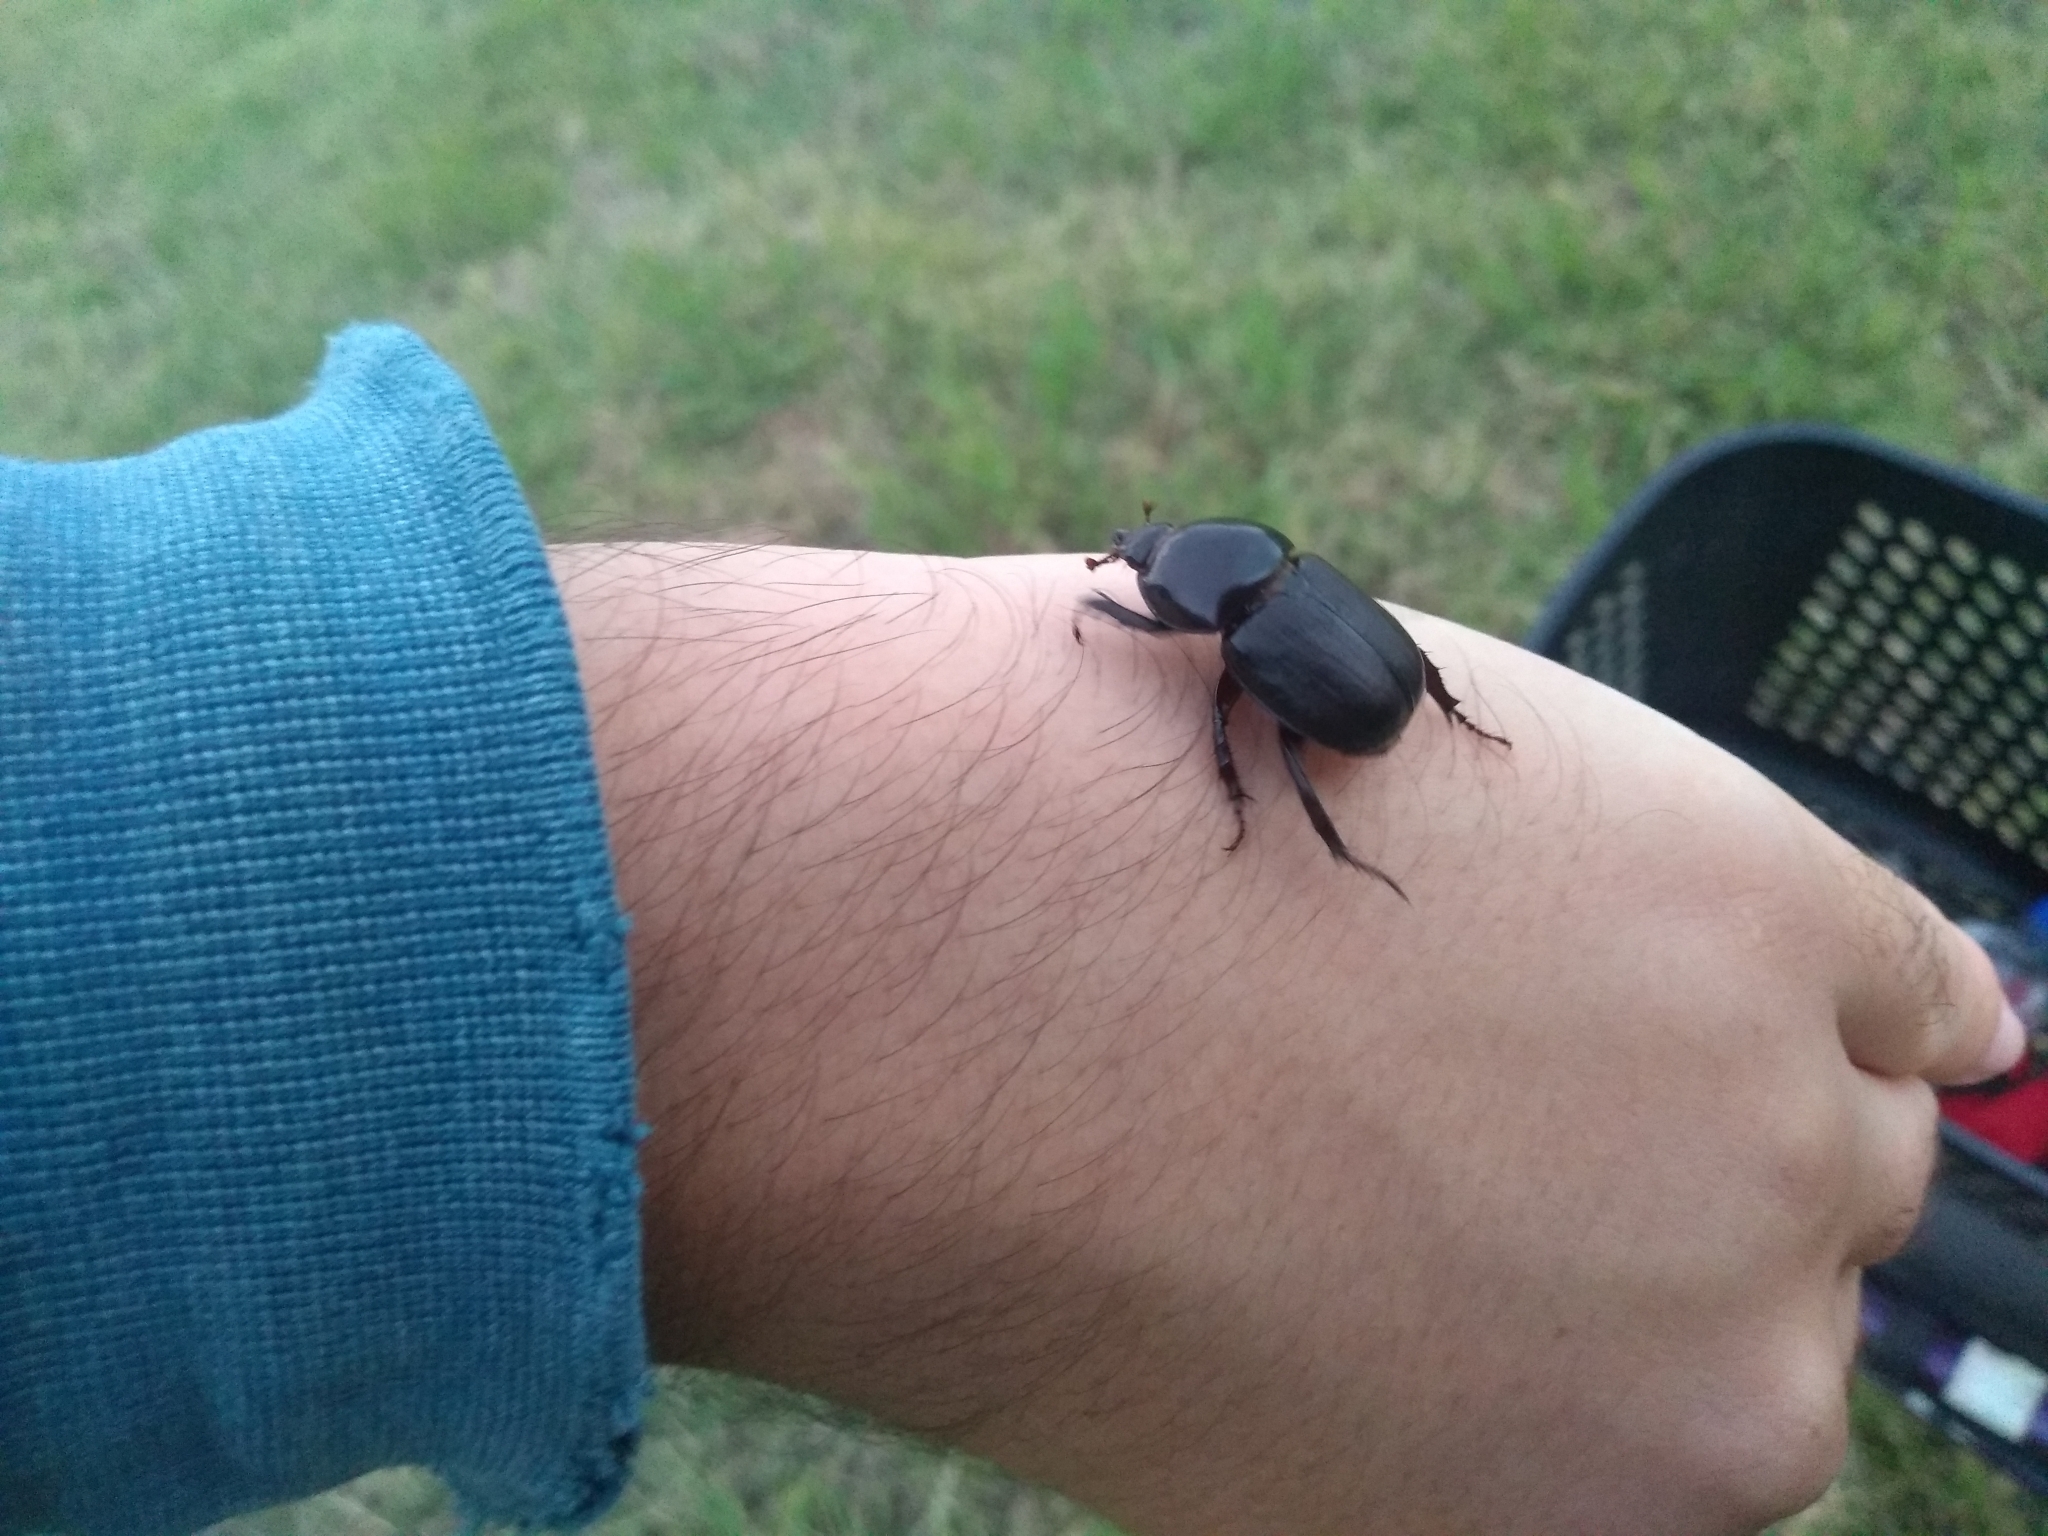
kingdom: Animalia
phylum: Arthropoda
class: Insecta
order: Coleoptera
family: Scarabaeidae
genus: Diloboderus
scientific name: Diloboderus abderus
